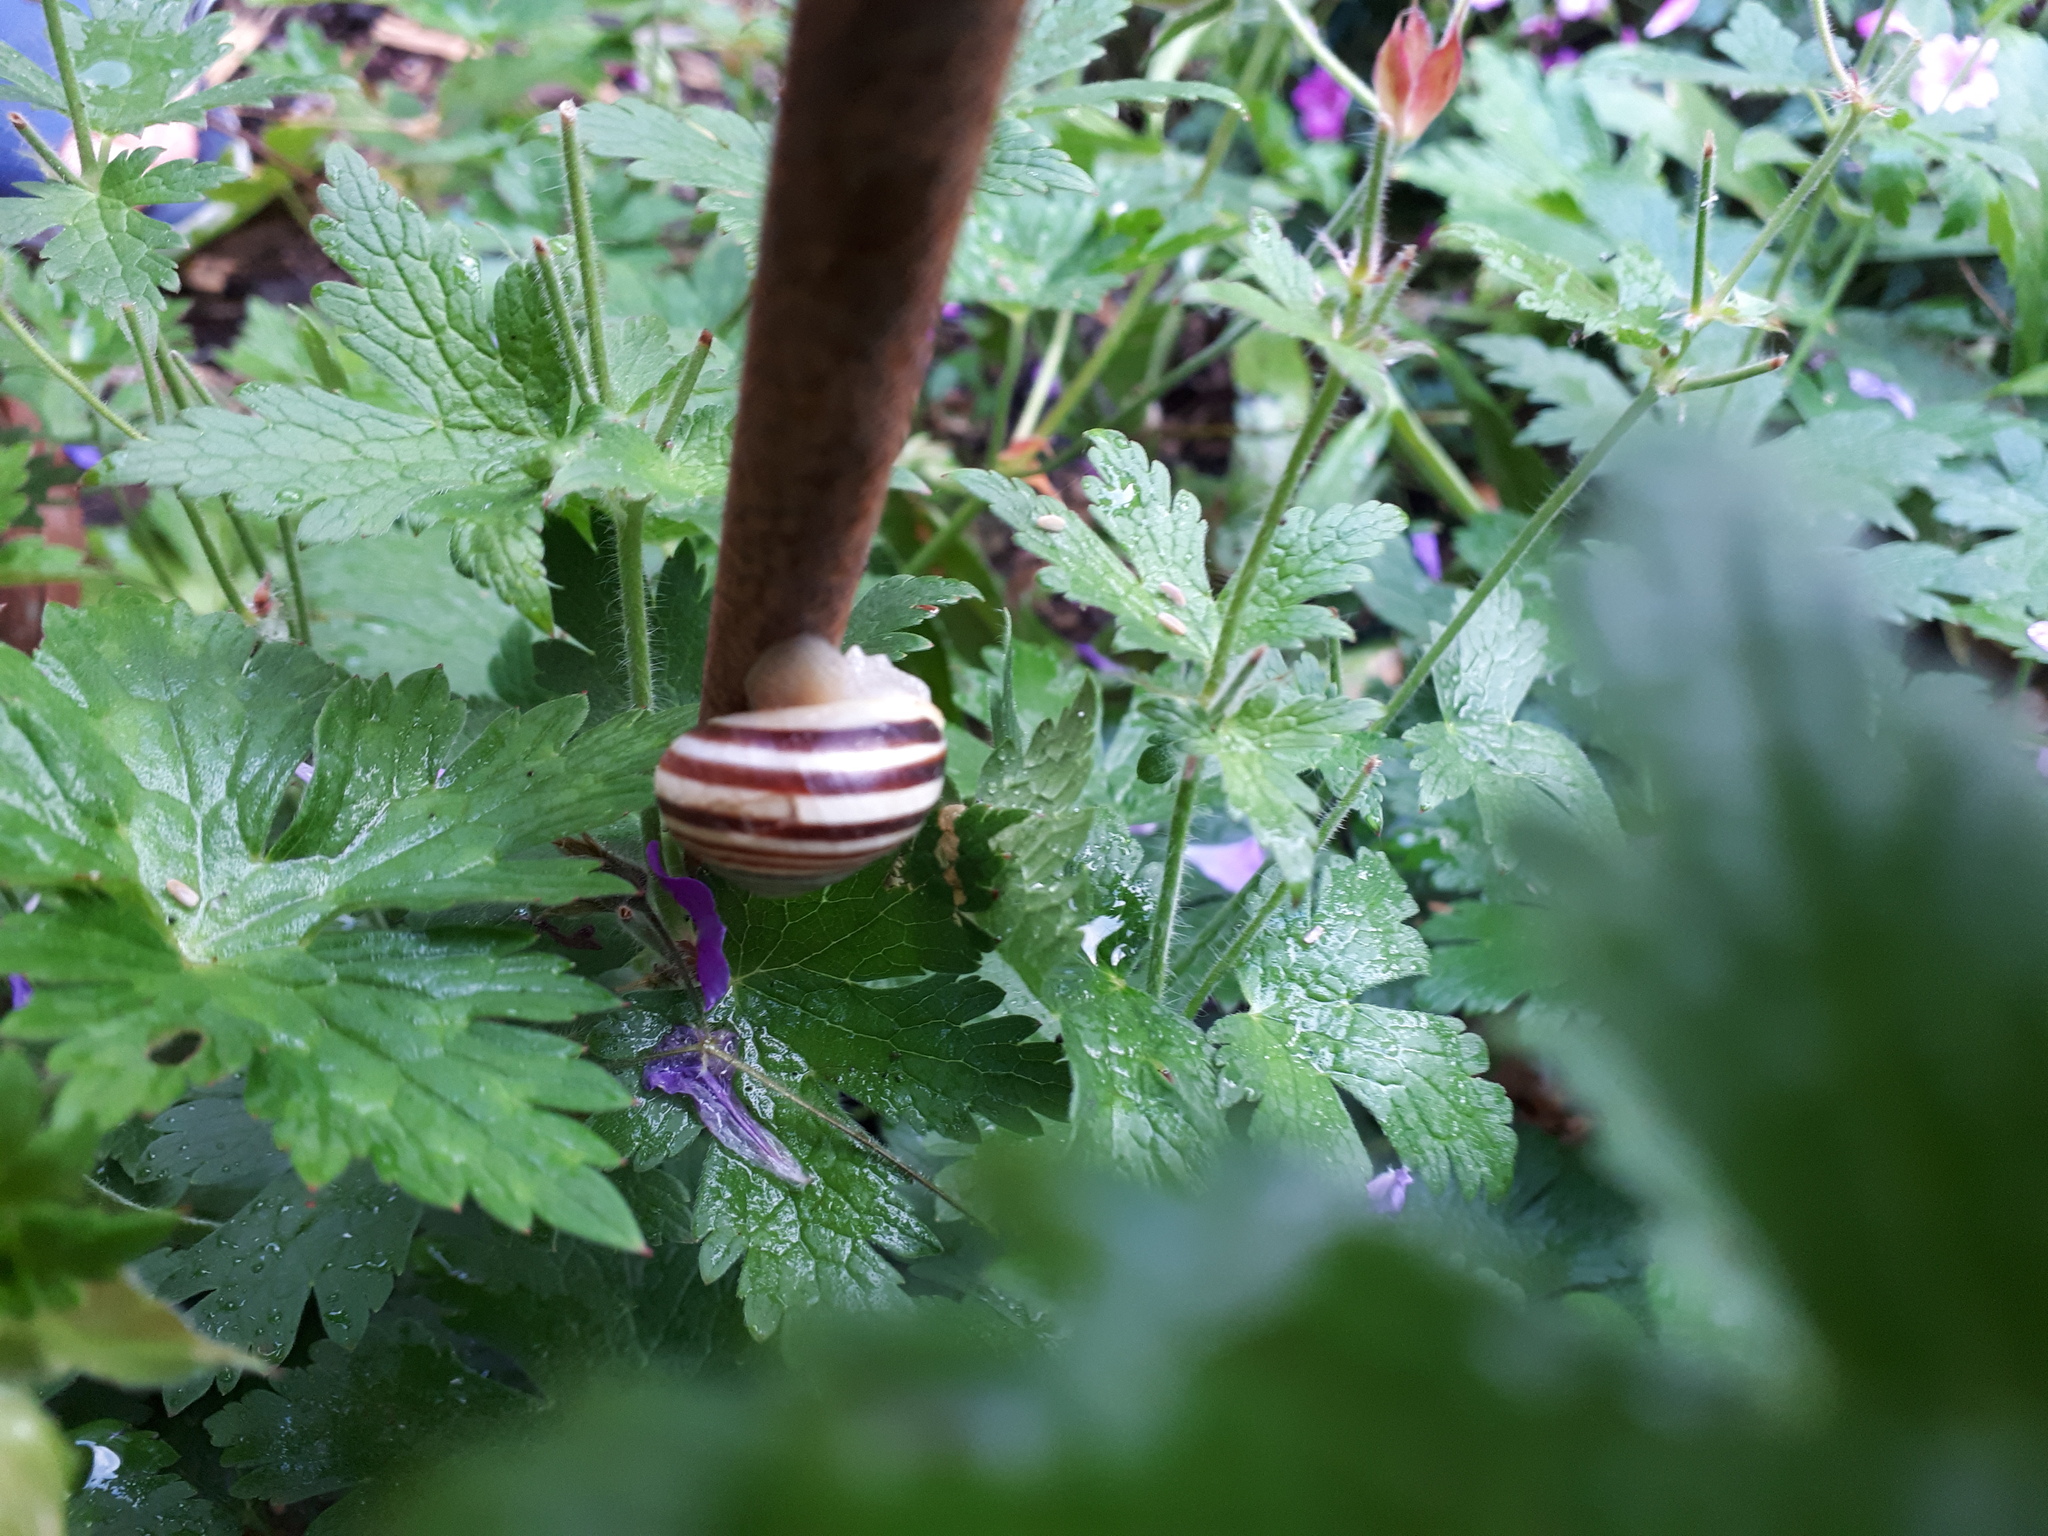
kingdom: Animalia
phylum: Mollusca
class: Gastropoda
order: Stylommatophora
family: Helicidae
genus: Cepaea
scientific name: Cepaea hortensis
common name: White-lip gardensnail
